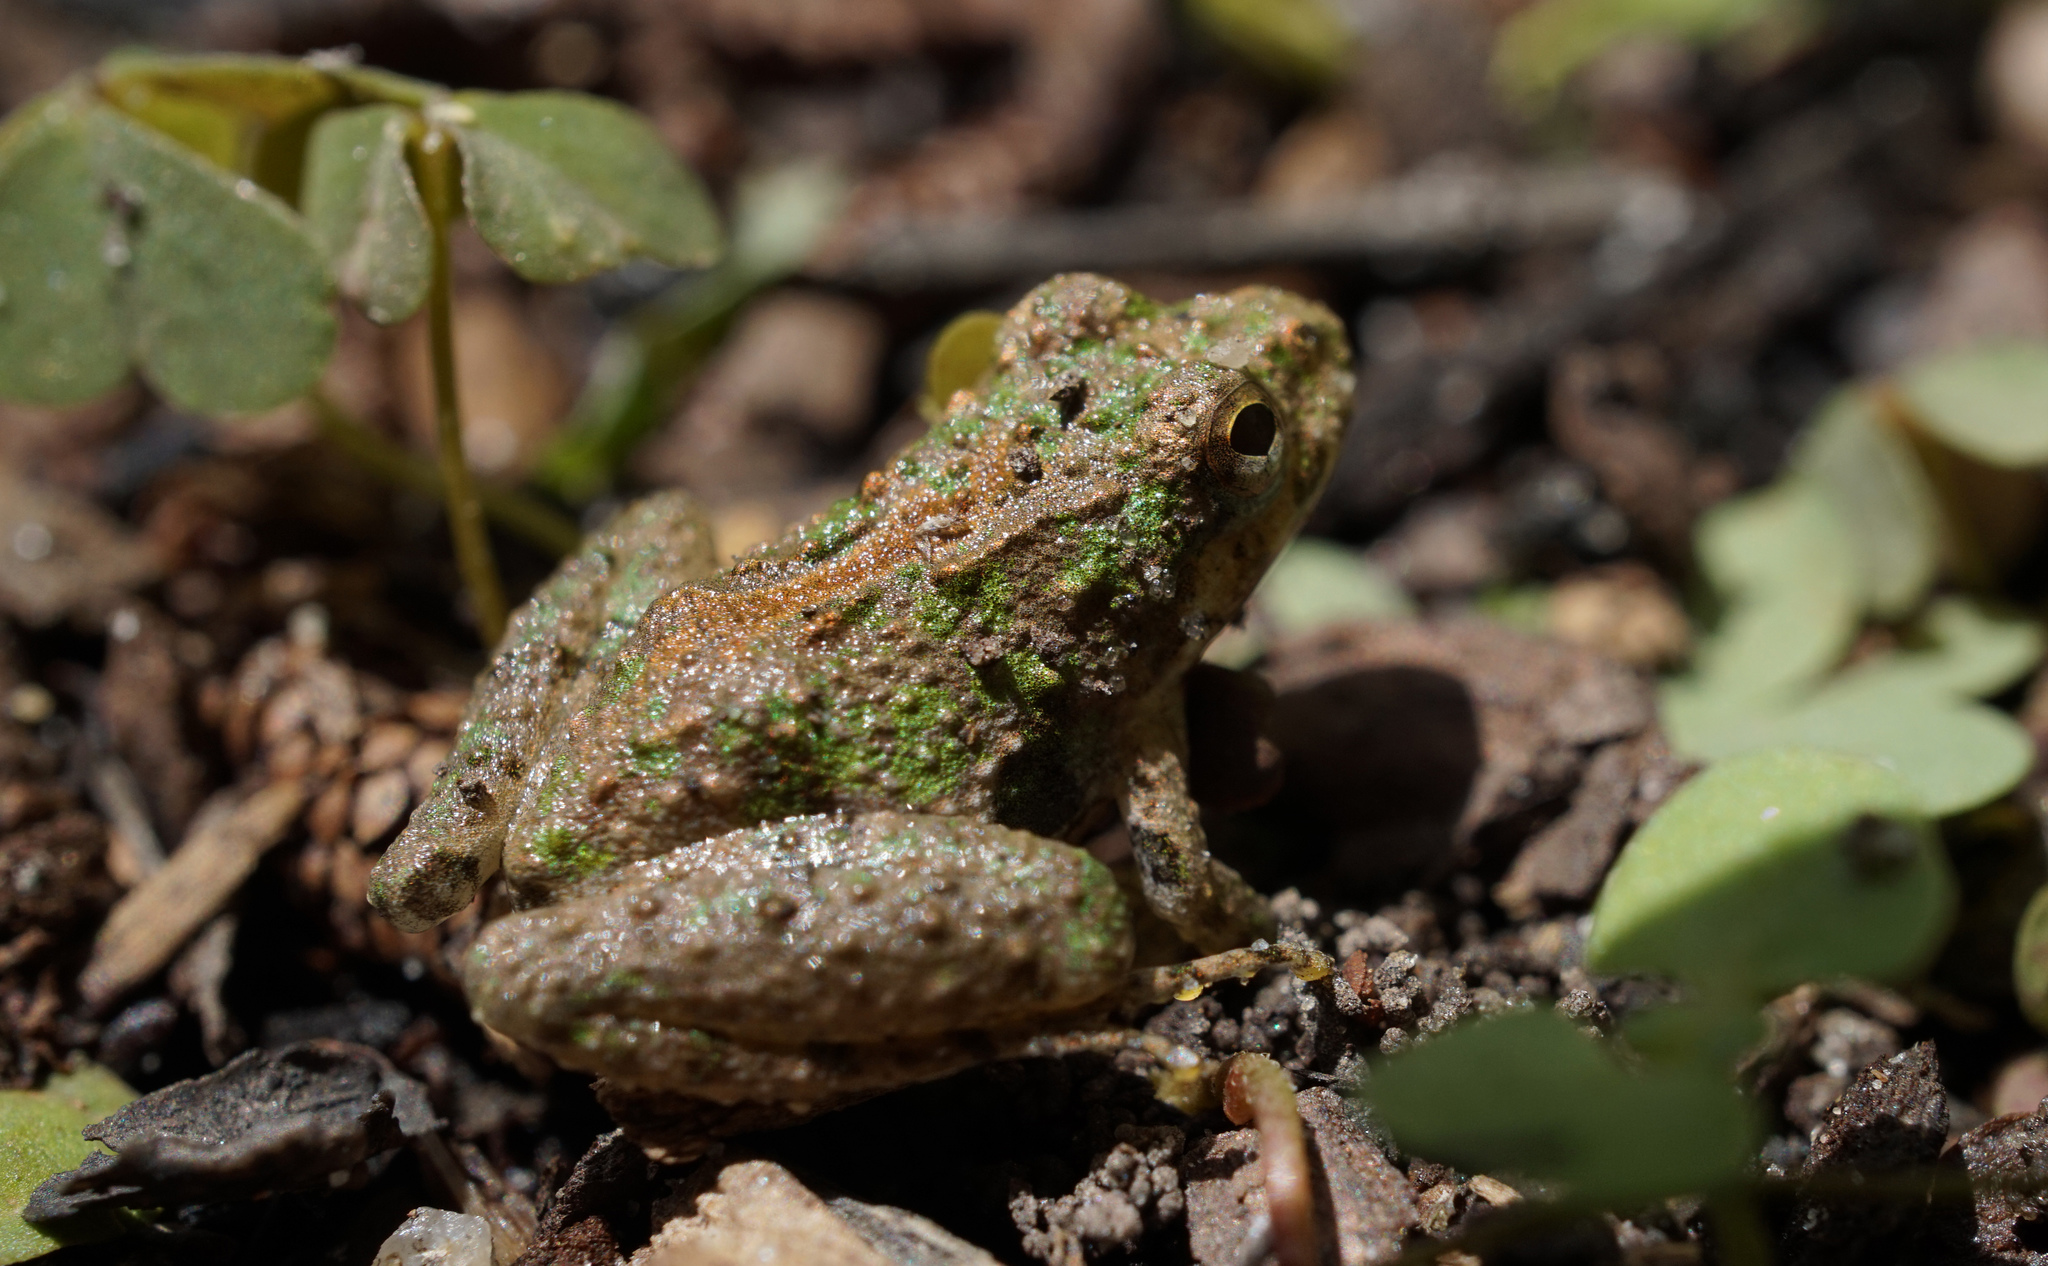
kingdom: Animalia
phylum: Chordata
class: Amphibia
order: Anura
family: Hylidae
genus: Acris
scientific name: Acris crepitans
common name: Northern cricket frog
